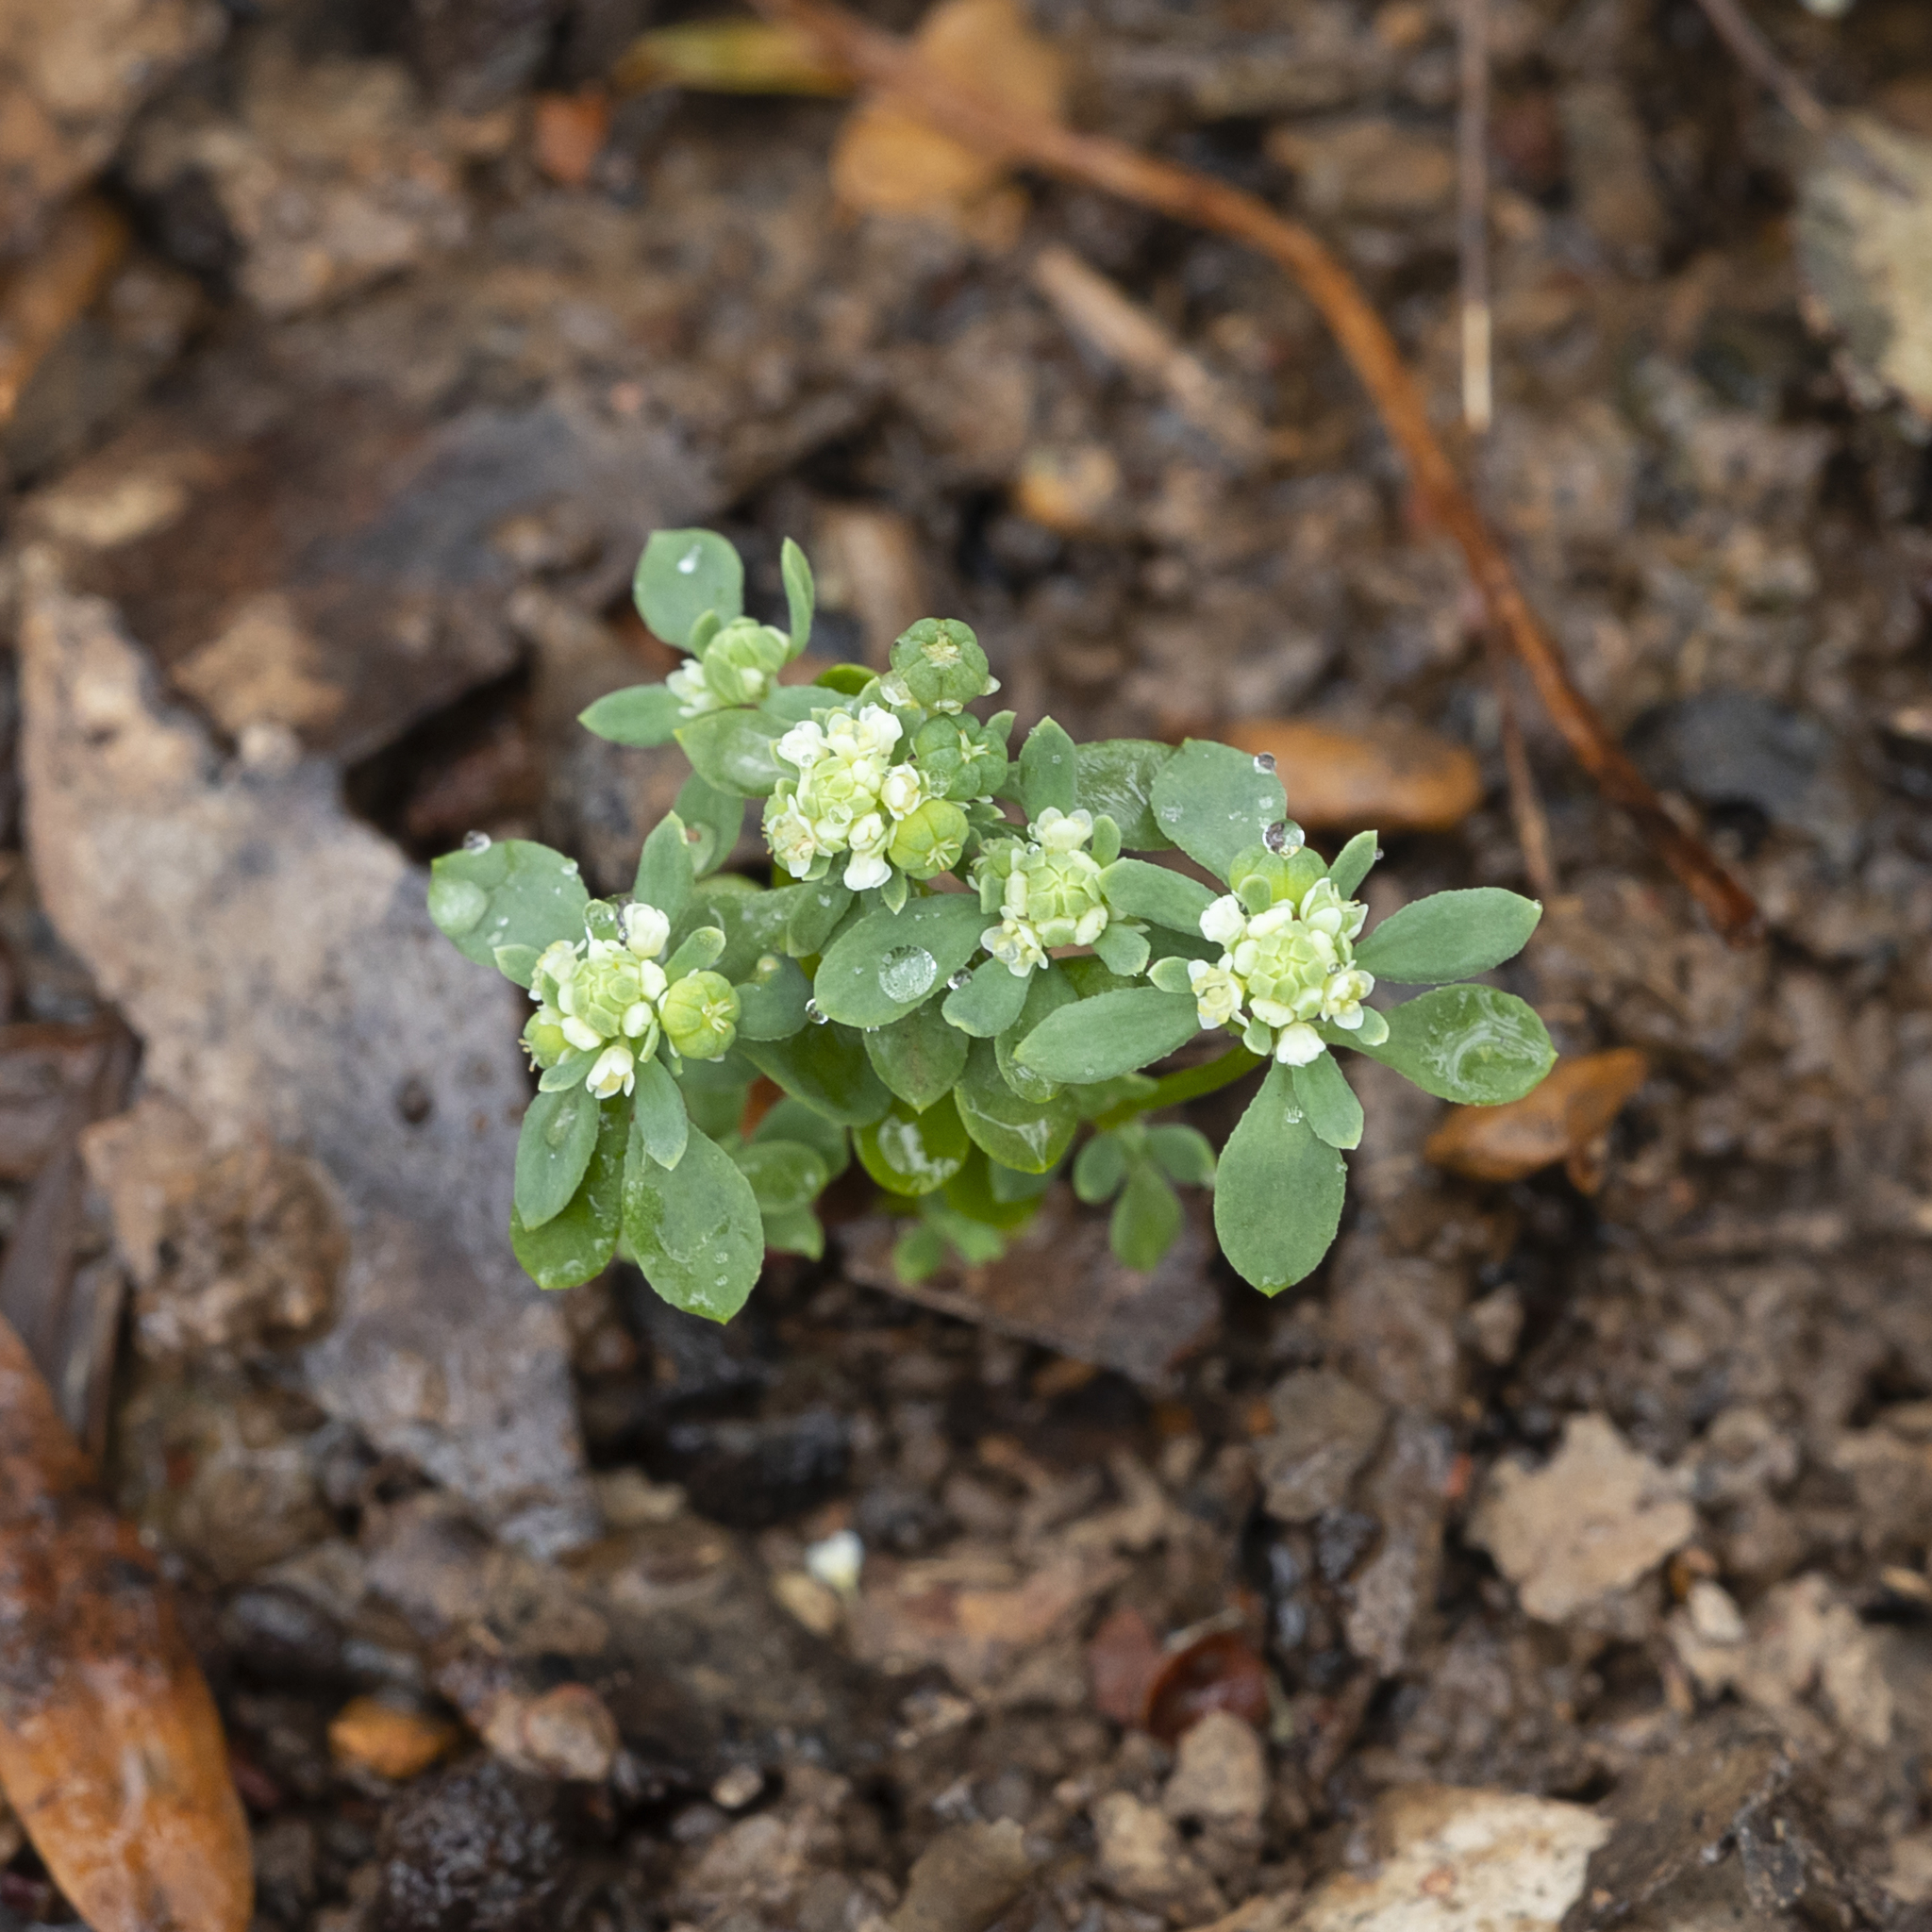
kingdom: Plantae
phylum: Tracheophyta
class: Magnoliopsida
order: Malpighiales
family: Phyllanthaceae
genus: Poranthera
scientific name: Poranthera microphylla
